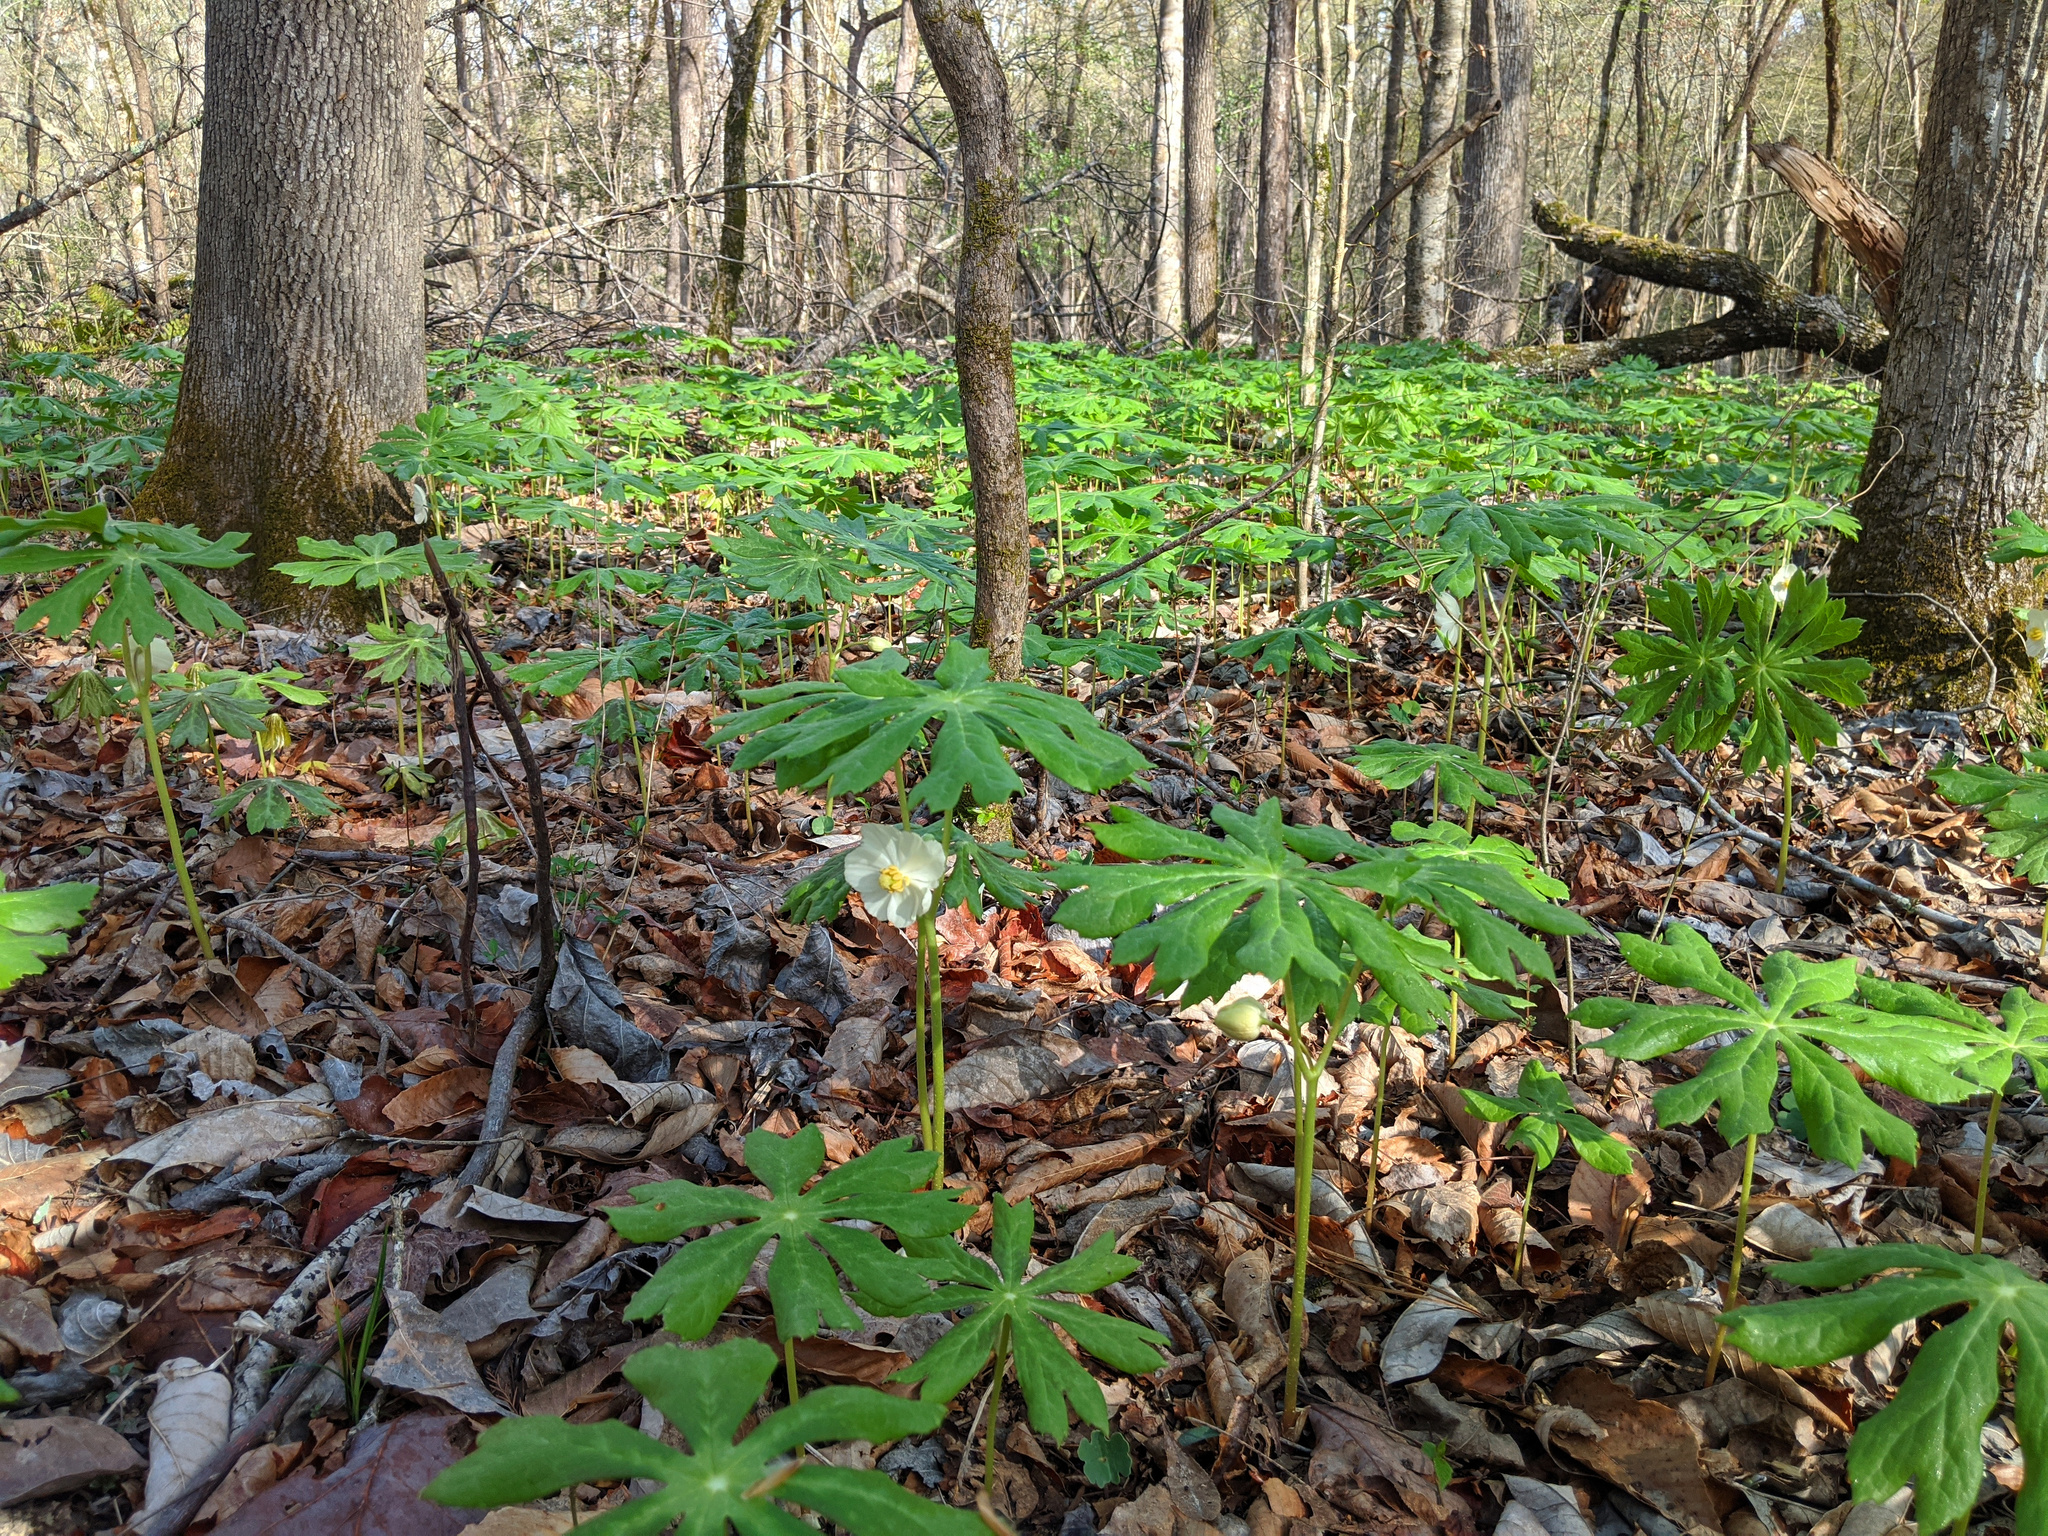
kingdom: Plantae
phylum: Tracheophyta
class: Magnoliopsida
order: Ranunculales
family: Berberidaceae
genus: Podophyllum
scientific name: Podophyllum peltatum
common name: Wild mandrake
